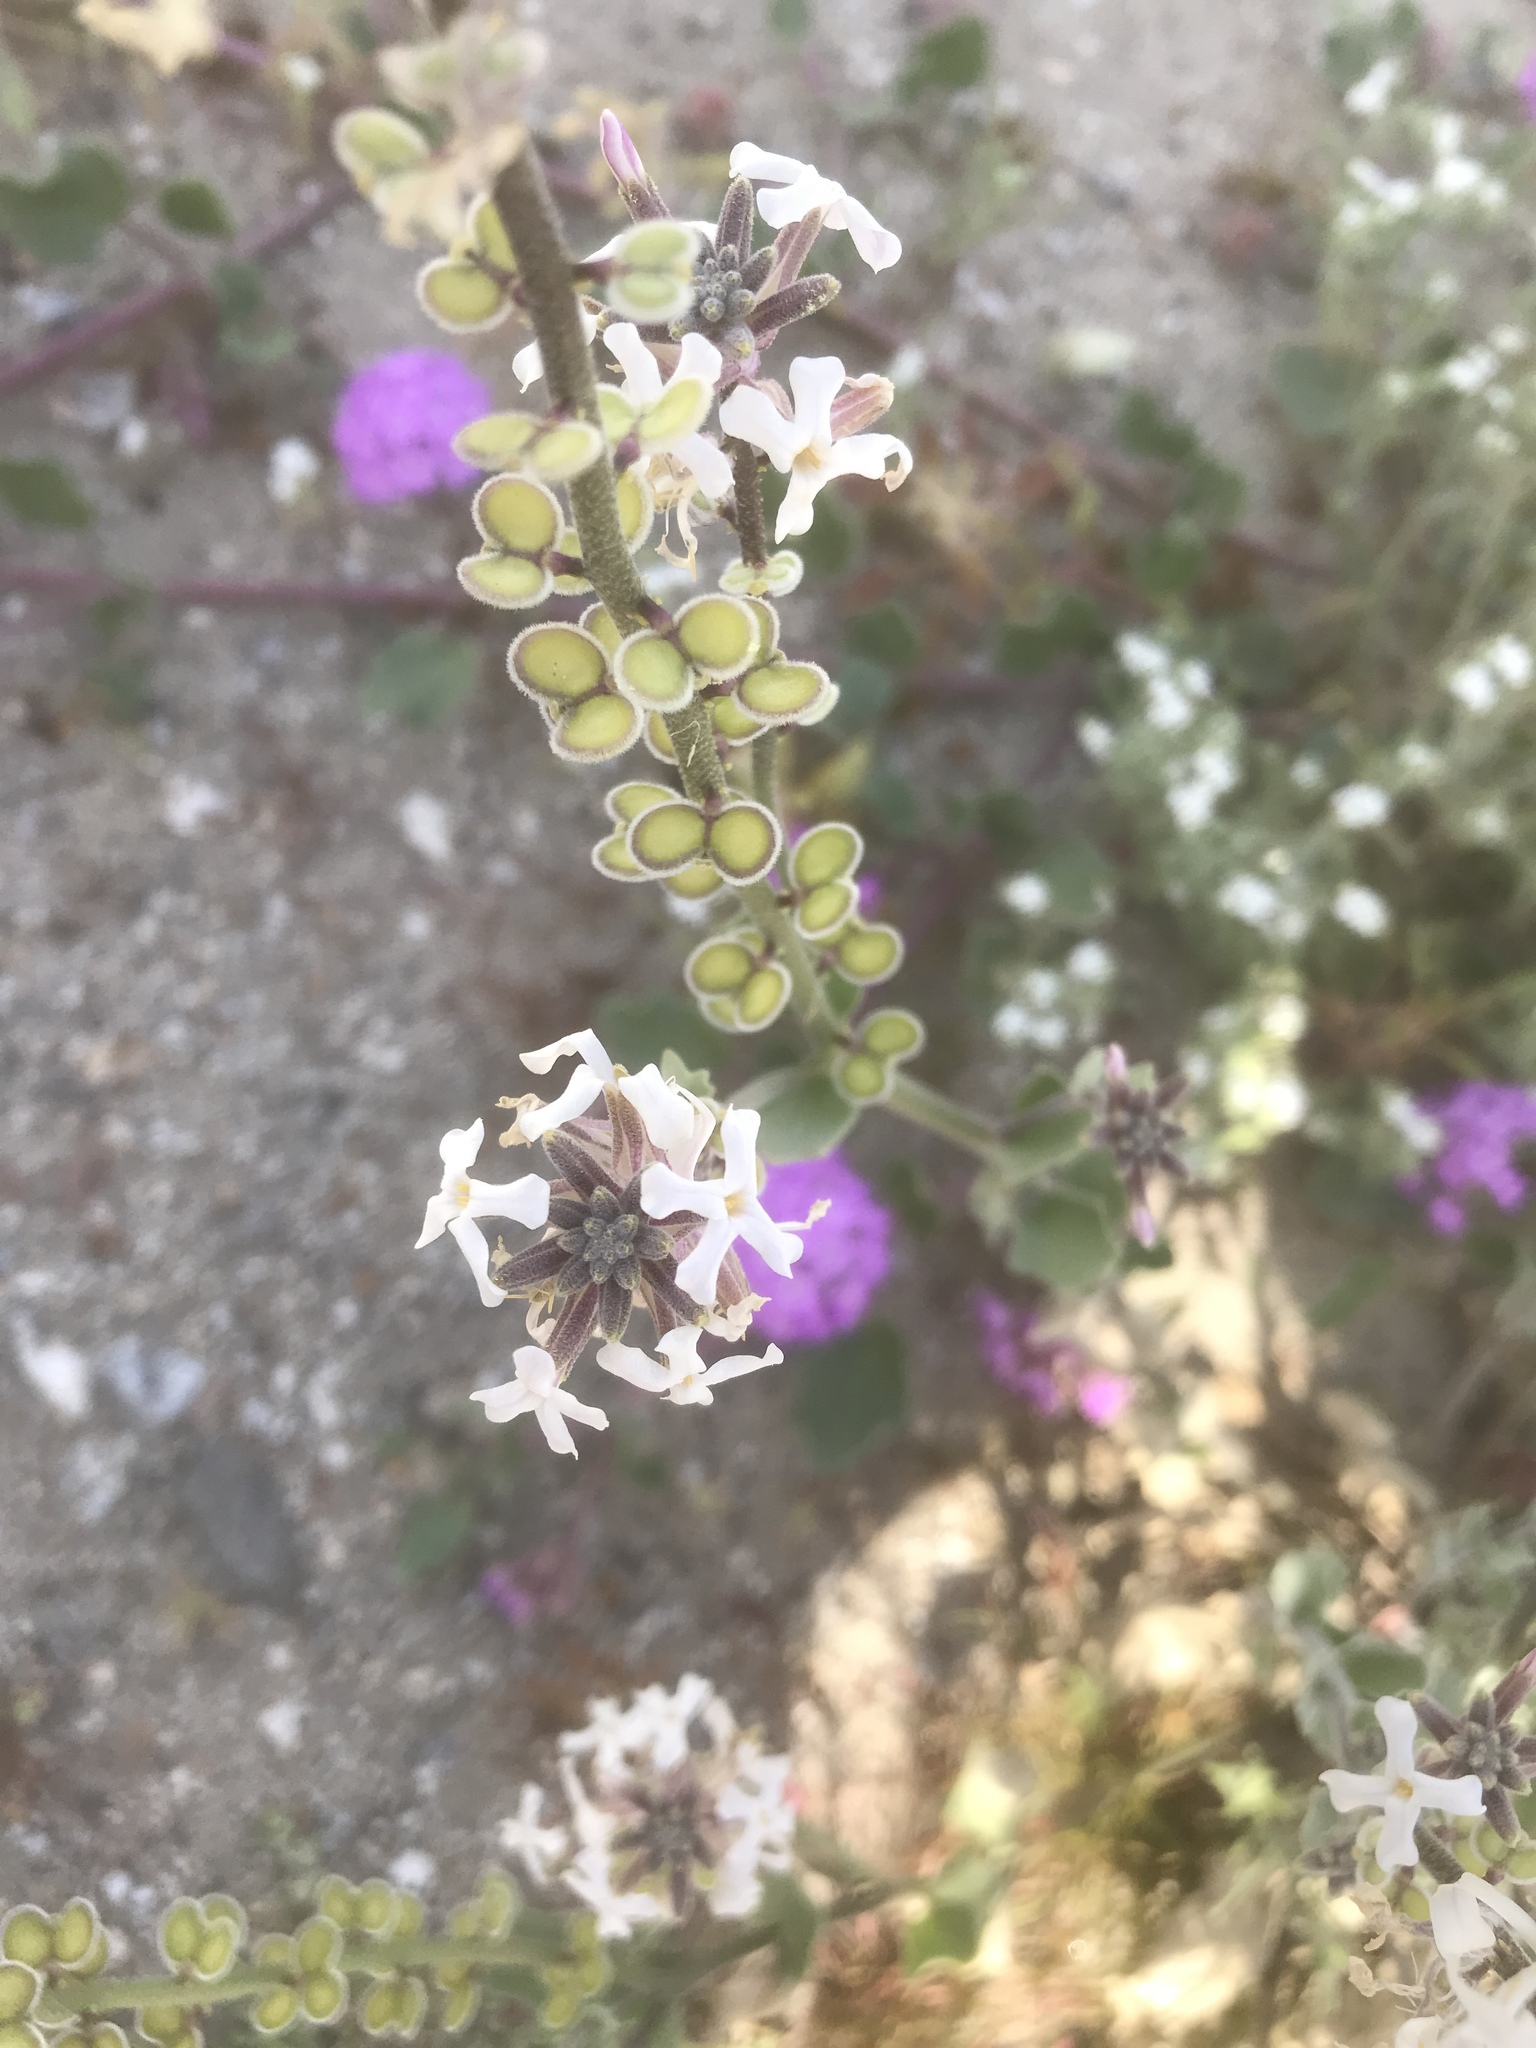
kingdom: Plantae
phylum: Tracheophyta
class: Magnoliopsida
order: Brassicales
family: Brassicaceae
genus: Dithyrea
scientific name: Dithyrea californica
